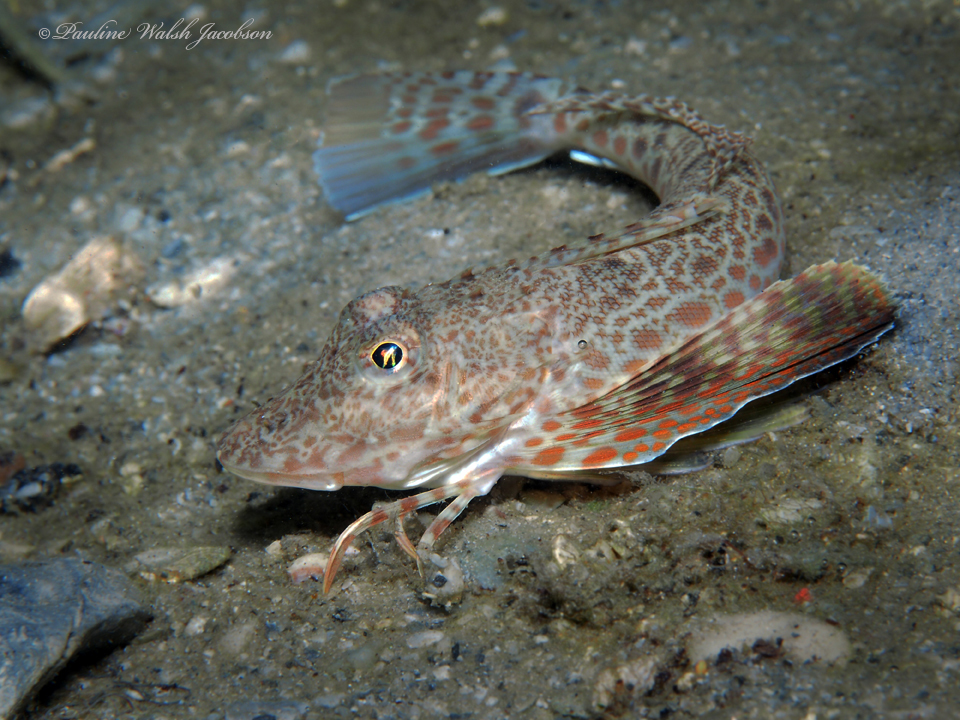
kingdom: Animalia
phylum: Chordata
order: Scorpaeniformes
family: Triglidae
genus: Prionotus
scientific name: Prionotus scitulus
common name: Leopard searobin
